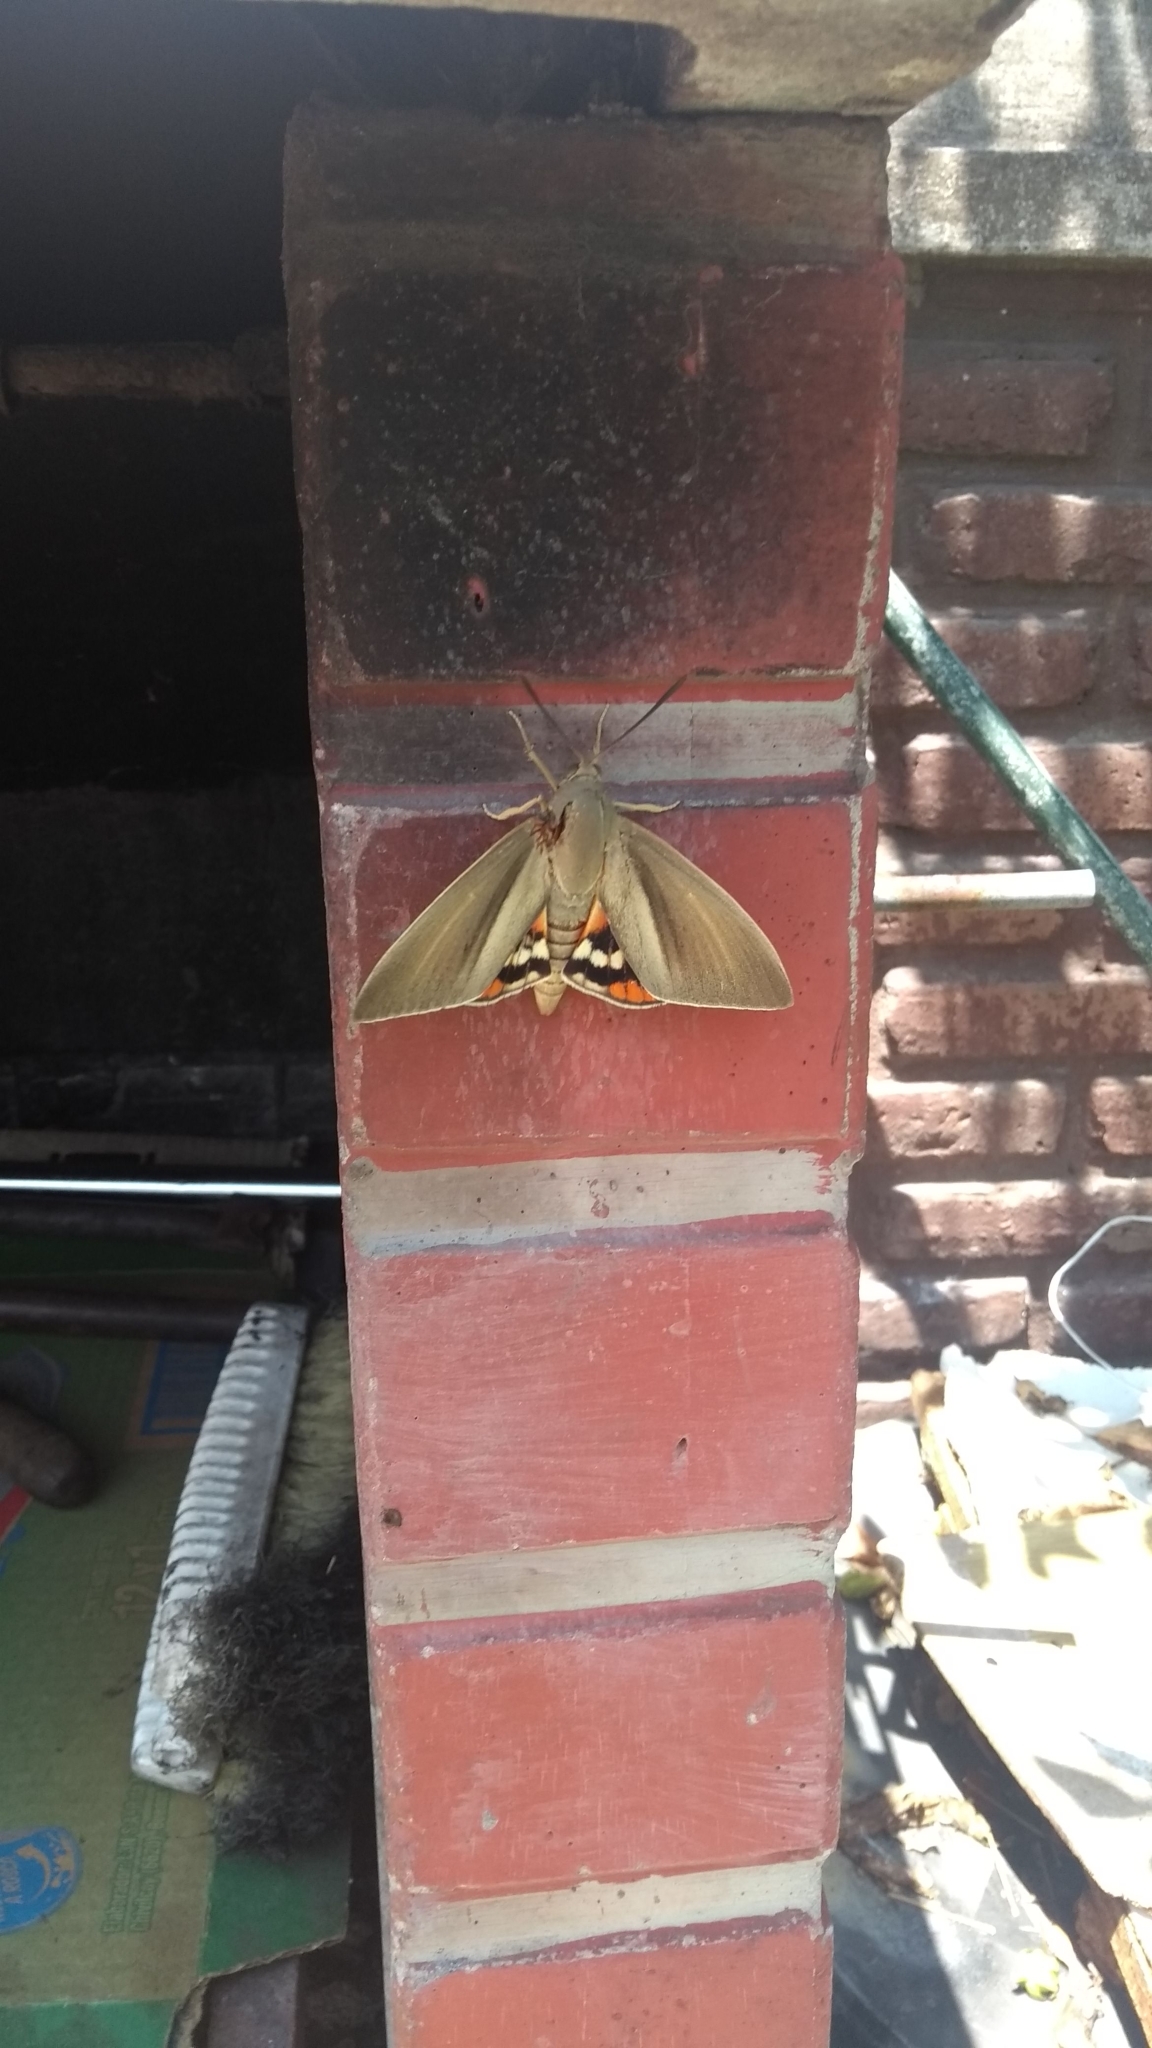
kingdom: Animalia
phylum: Arthropoda
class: Insecta
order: Lepidoptera
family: Castniidae
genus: Paysandisia
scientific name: Paysandisia archon
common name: Palm moth
